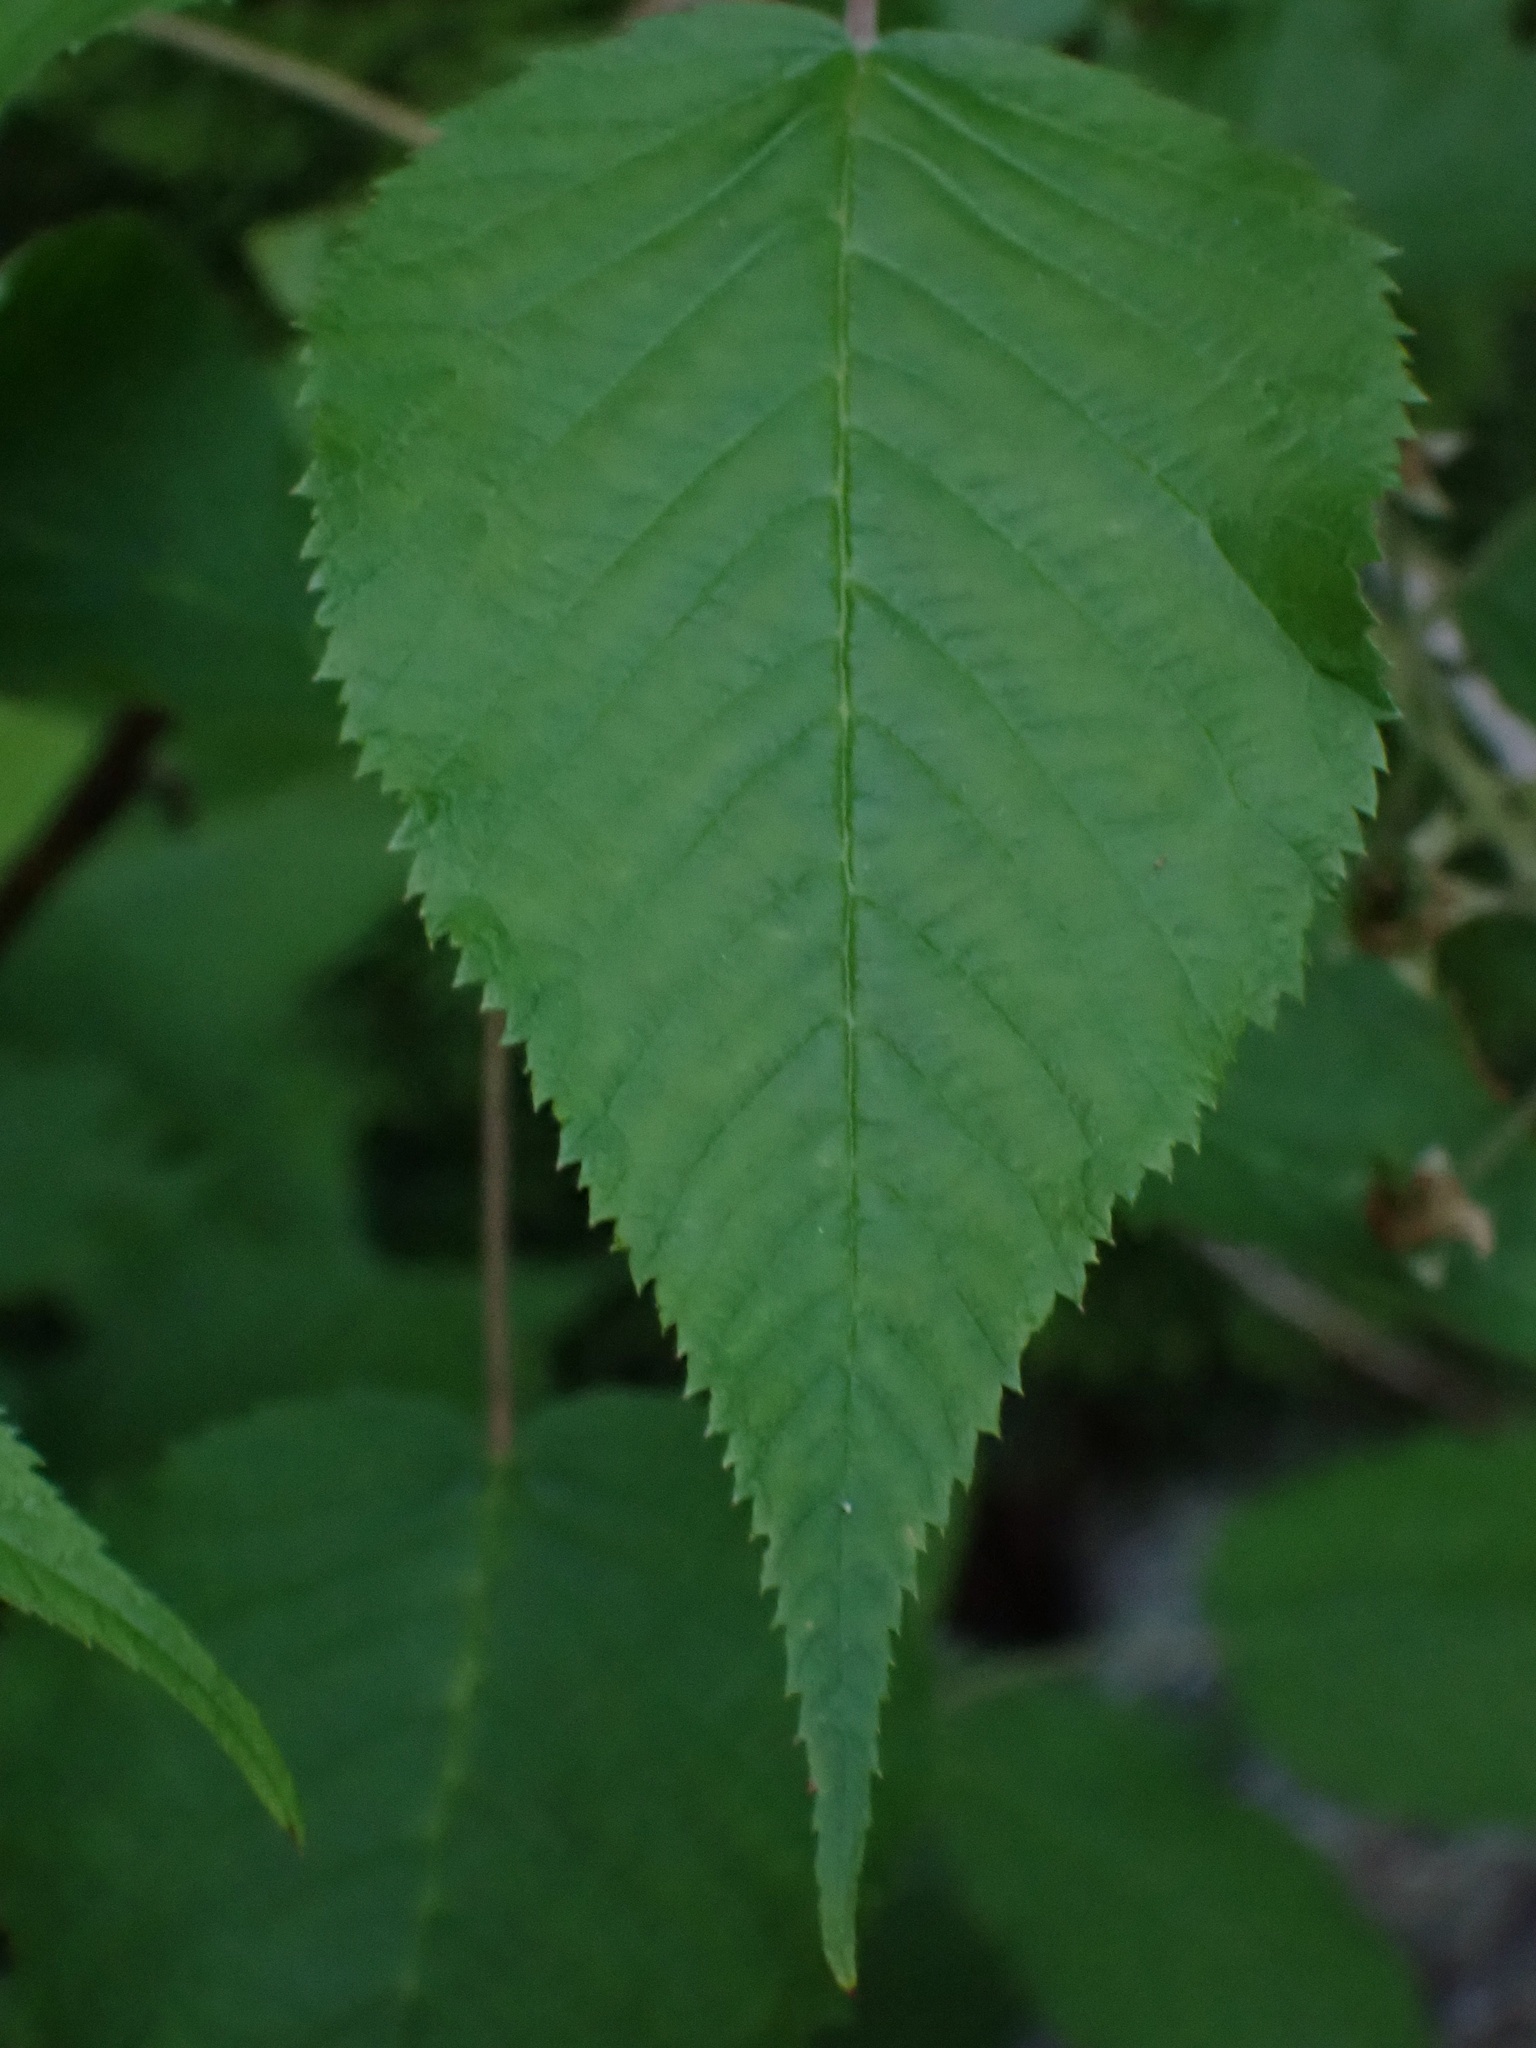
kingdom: Plantae
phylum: Tracheophyta
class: Magnoliopsida
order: Rosales
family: Rosaceae
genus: Rubus
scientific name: Rubus allegheniensis
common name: Allegheny blackberry
